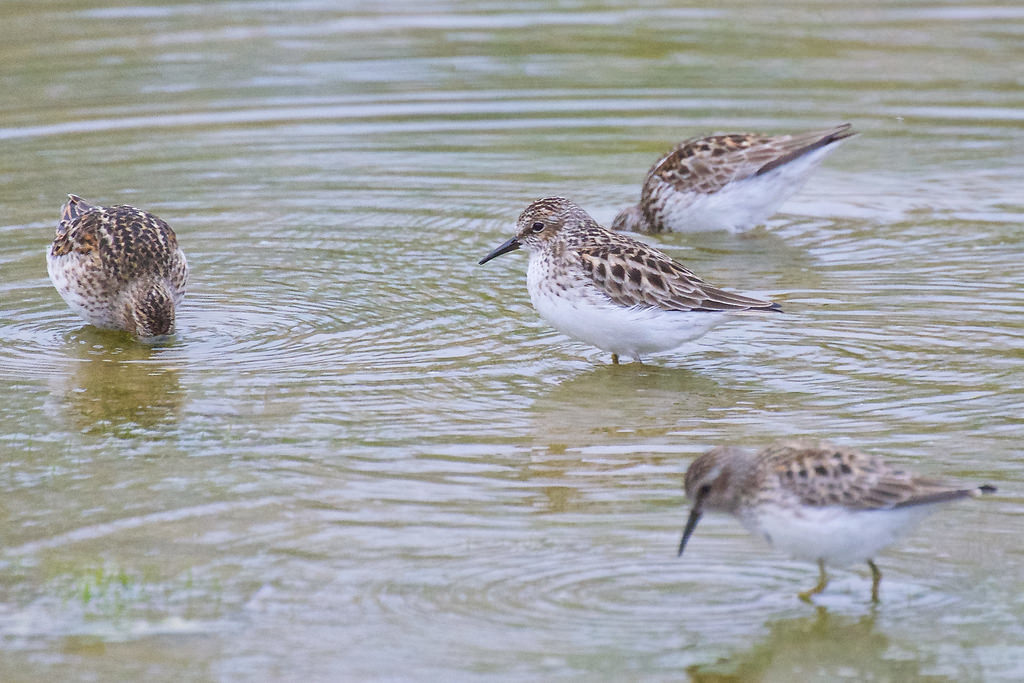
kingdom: Animalia
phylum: Chordata
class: Aves
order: Charadriiformes
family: Scolopacidae
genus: Calidris
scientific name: Calidris minutilla
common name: Least sandpiper
